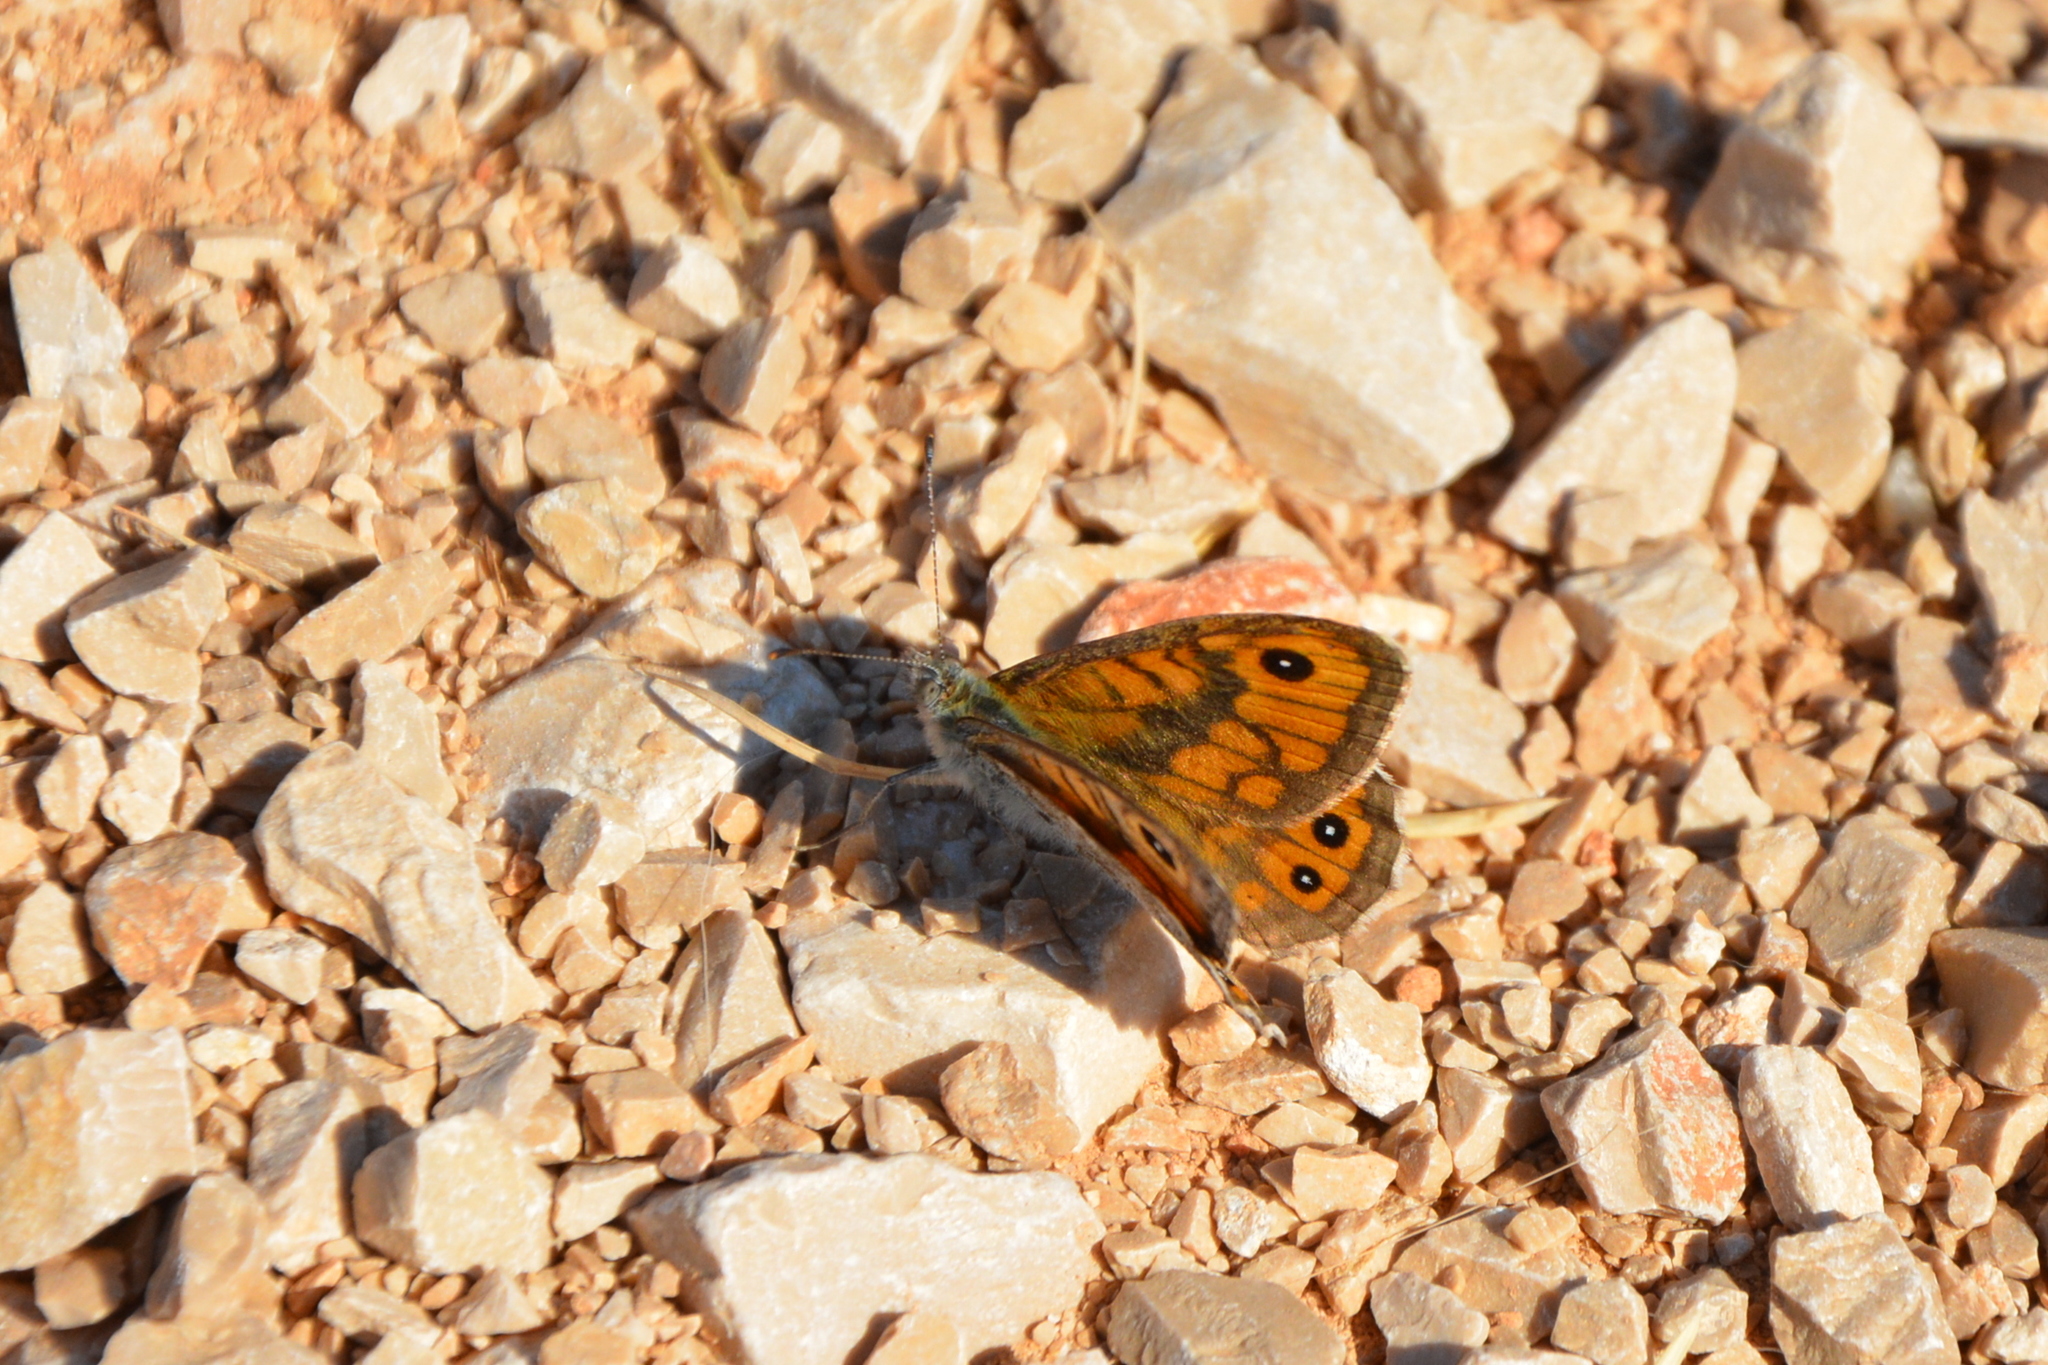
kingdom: Animalia
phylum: Arthropoda
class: Insecta
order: Lepidoptera
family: Nymphalidae
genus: Pararge
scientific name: Pararge Lasiommata megera
